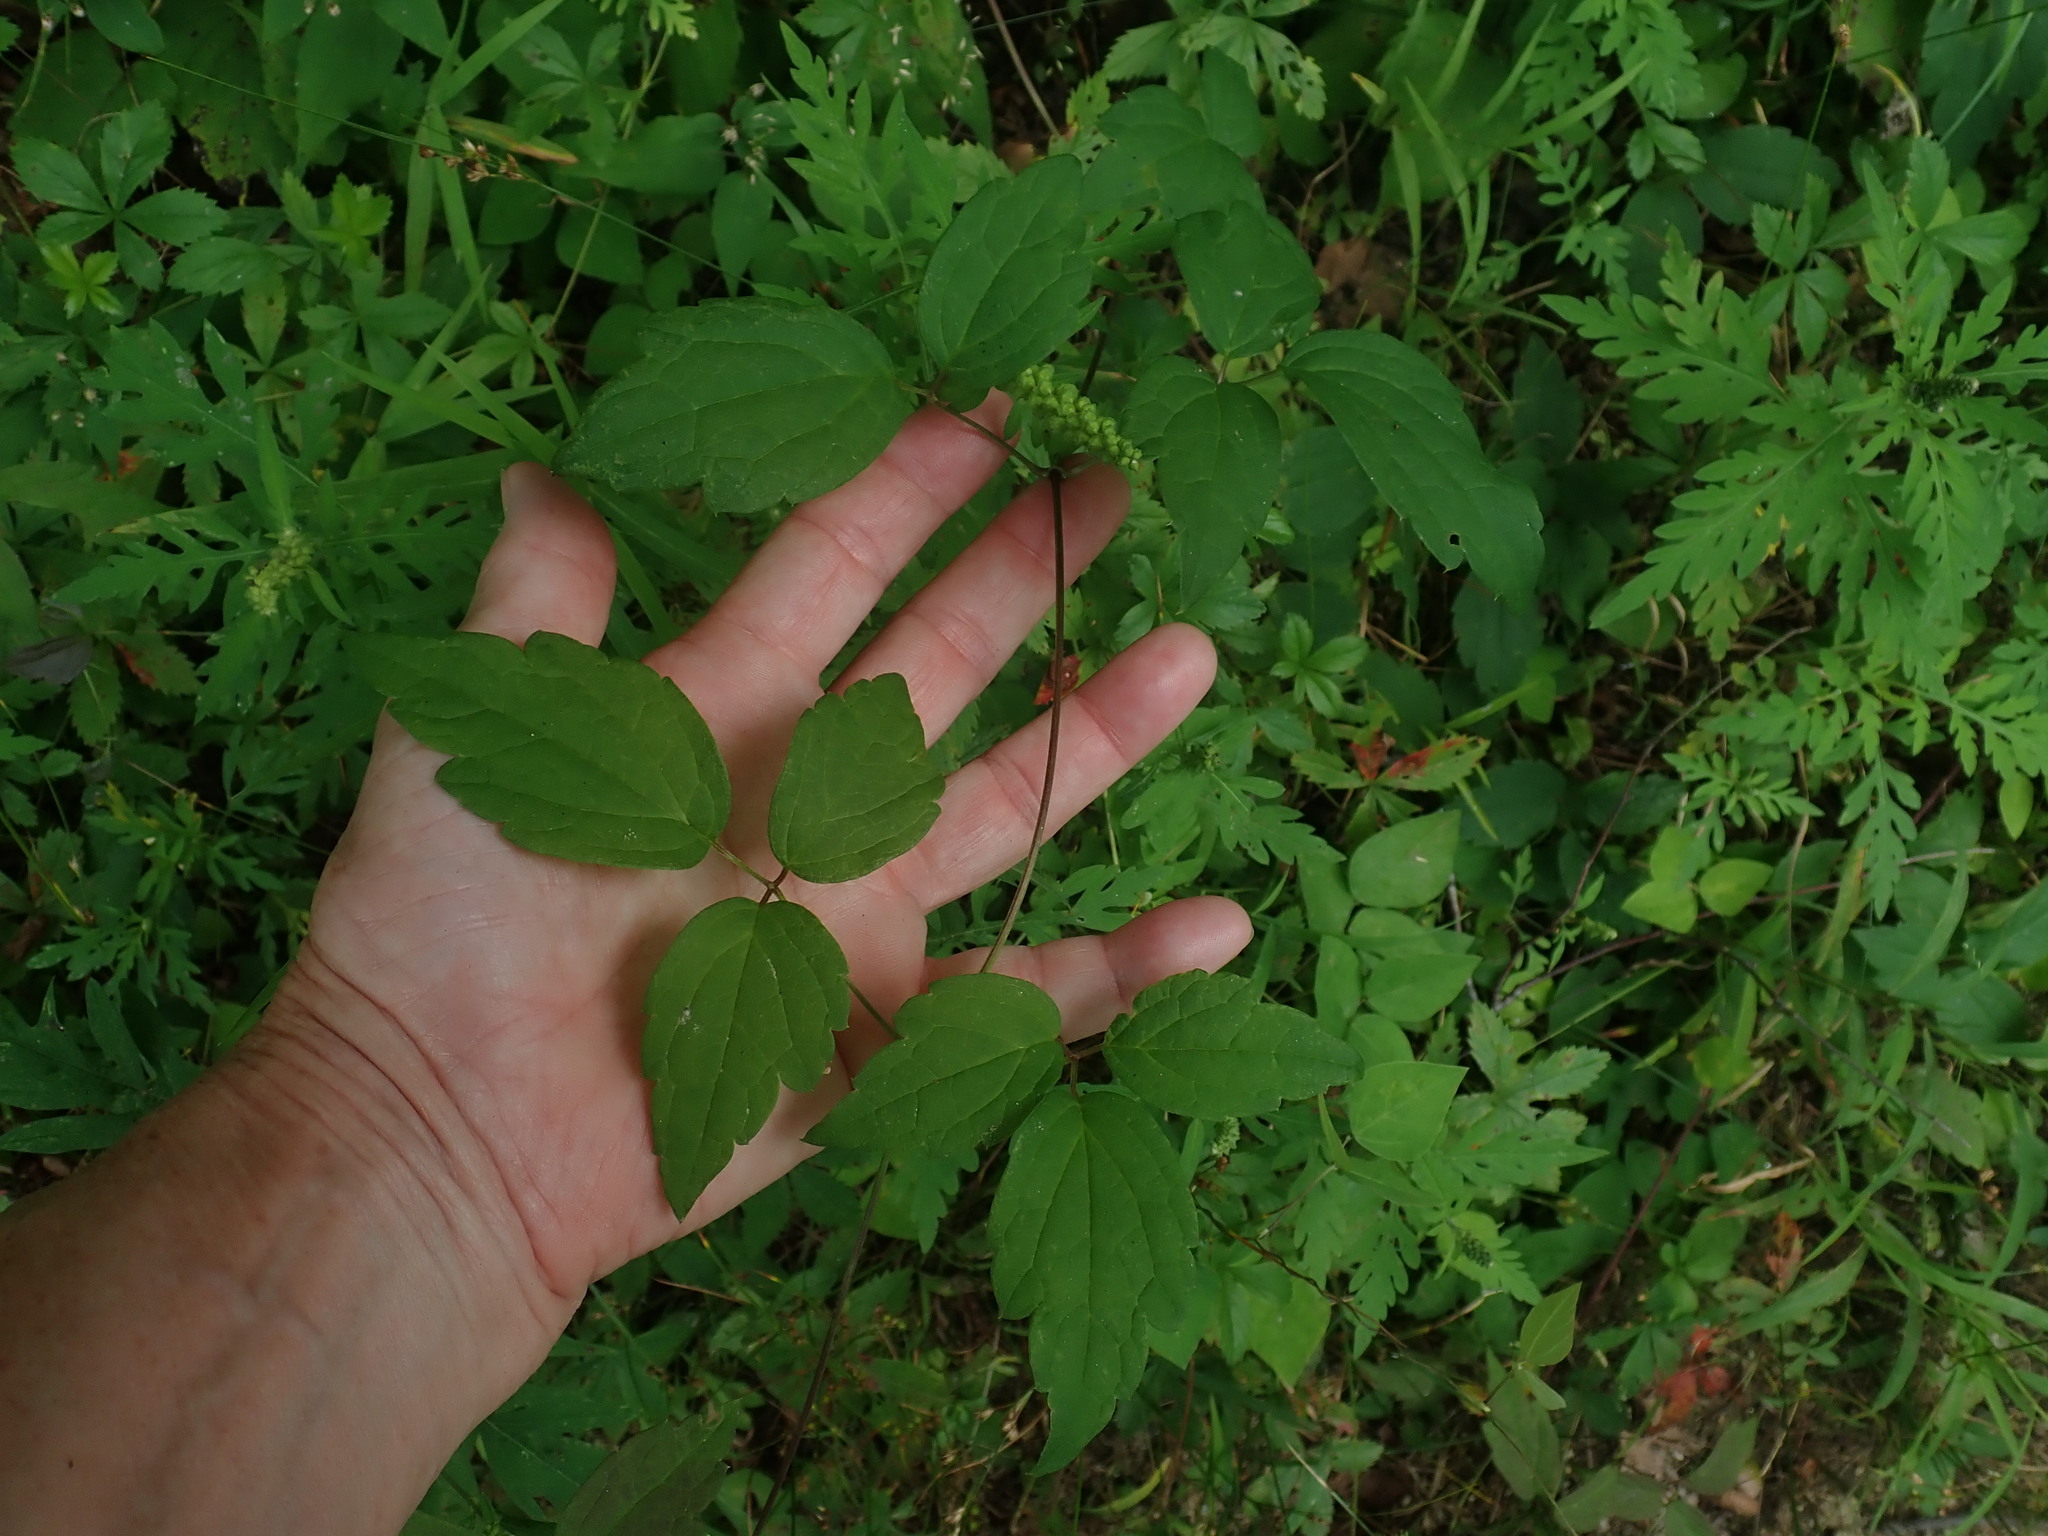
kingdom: Plantae
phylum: Tracheophyta
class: Magnoliopsida
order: Ranunculales
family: Ranunculaceae
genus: Clematis
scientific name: Clematis virginiana
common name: Virgin's-bower
